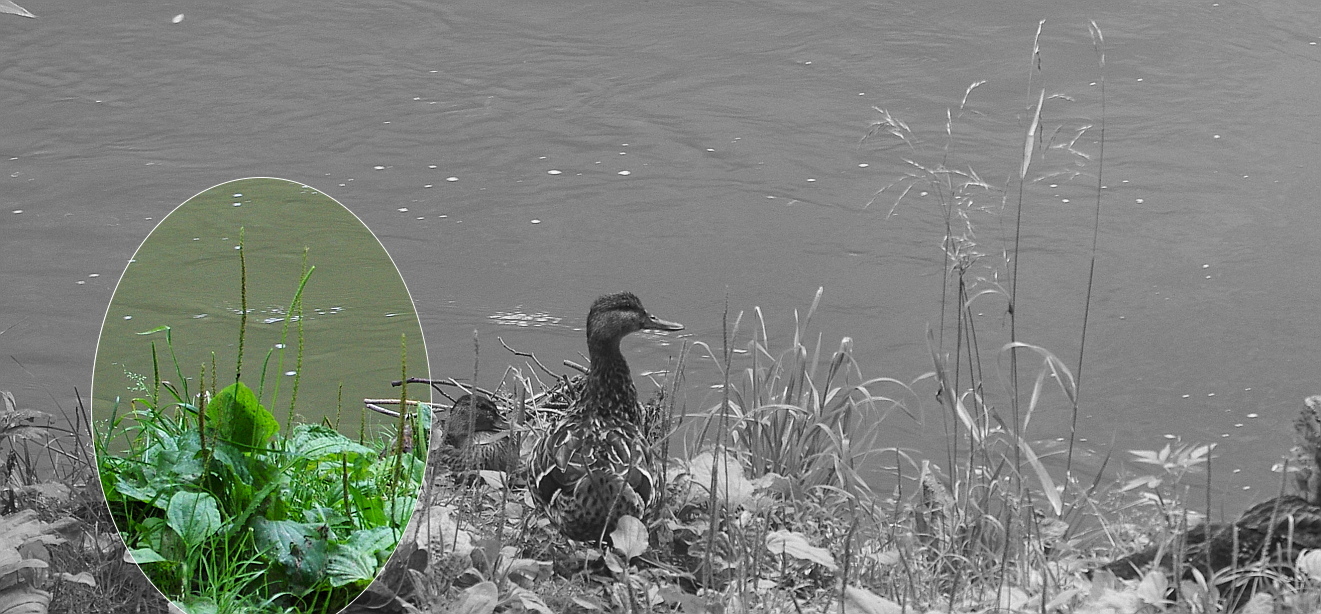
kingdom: Plantae
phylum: Tracheophyta
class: Magnoliopsida
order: Lamiales
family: Plantaginaceae
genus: Plantago
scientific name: Plantago major
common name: Common plantain
